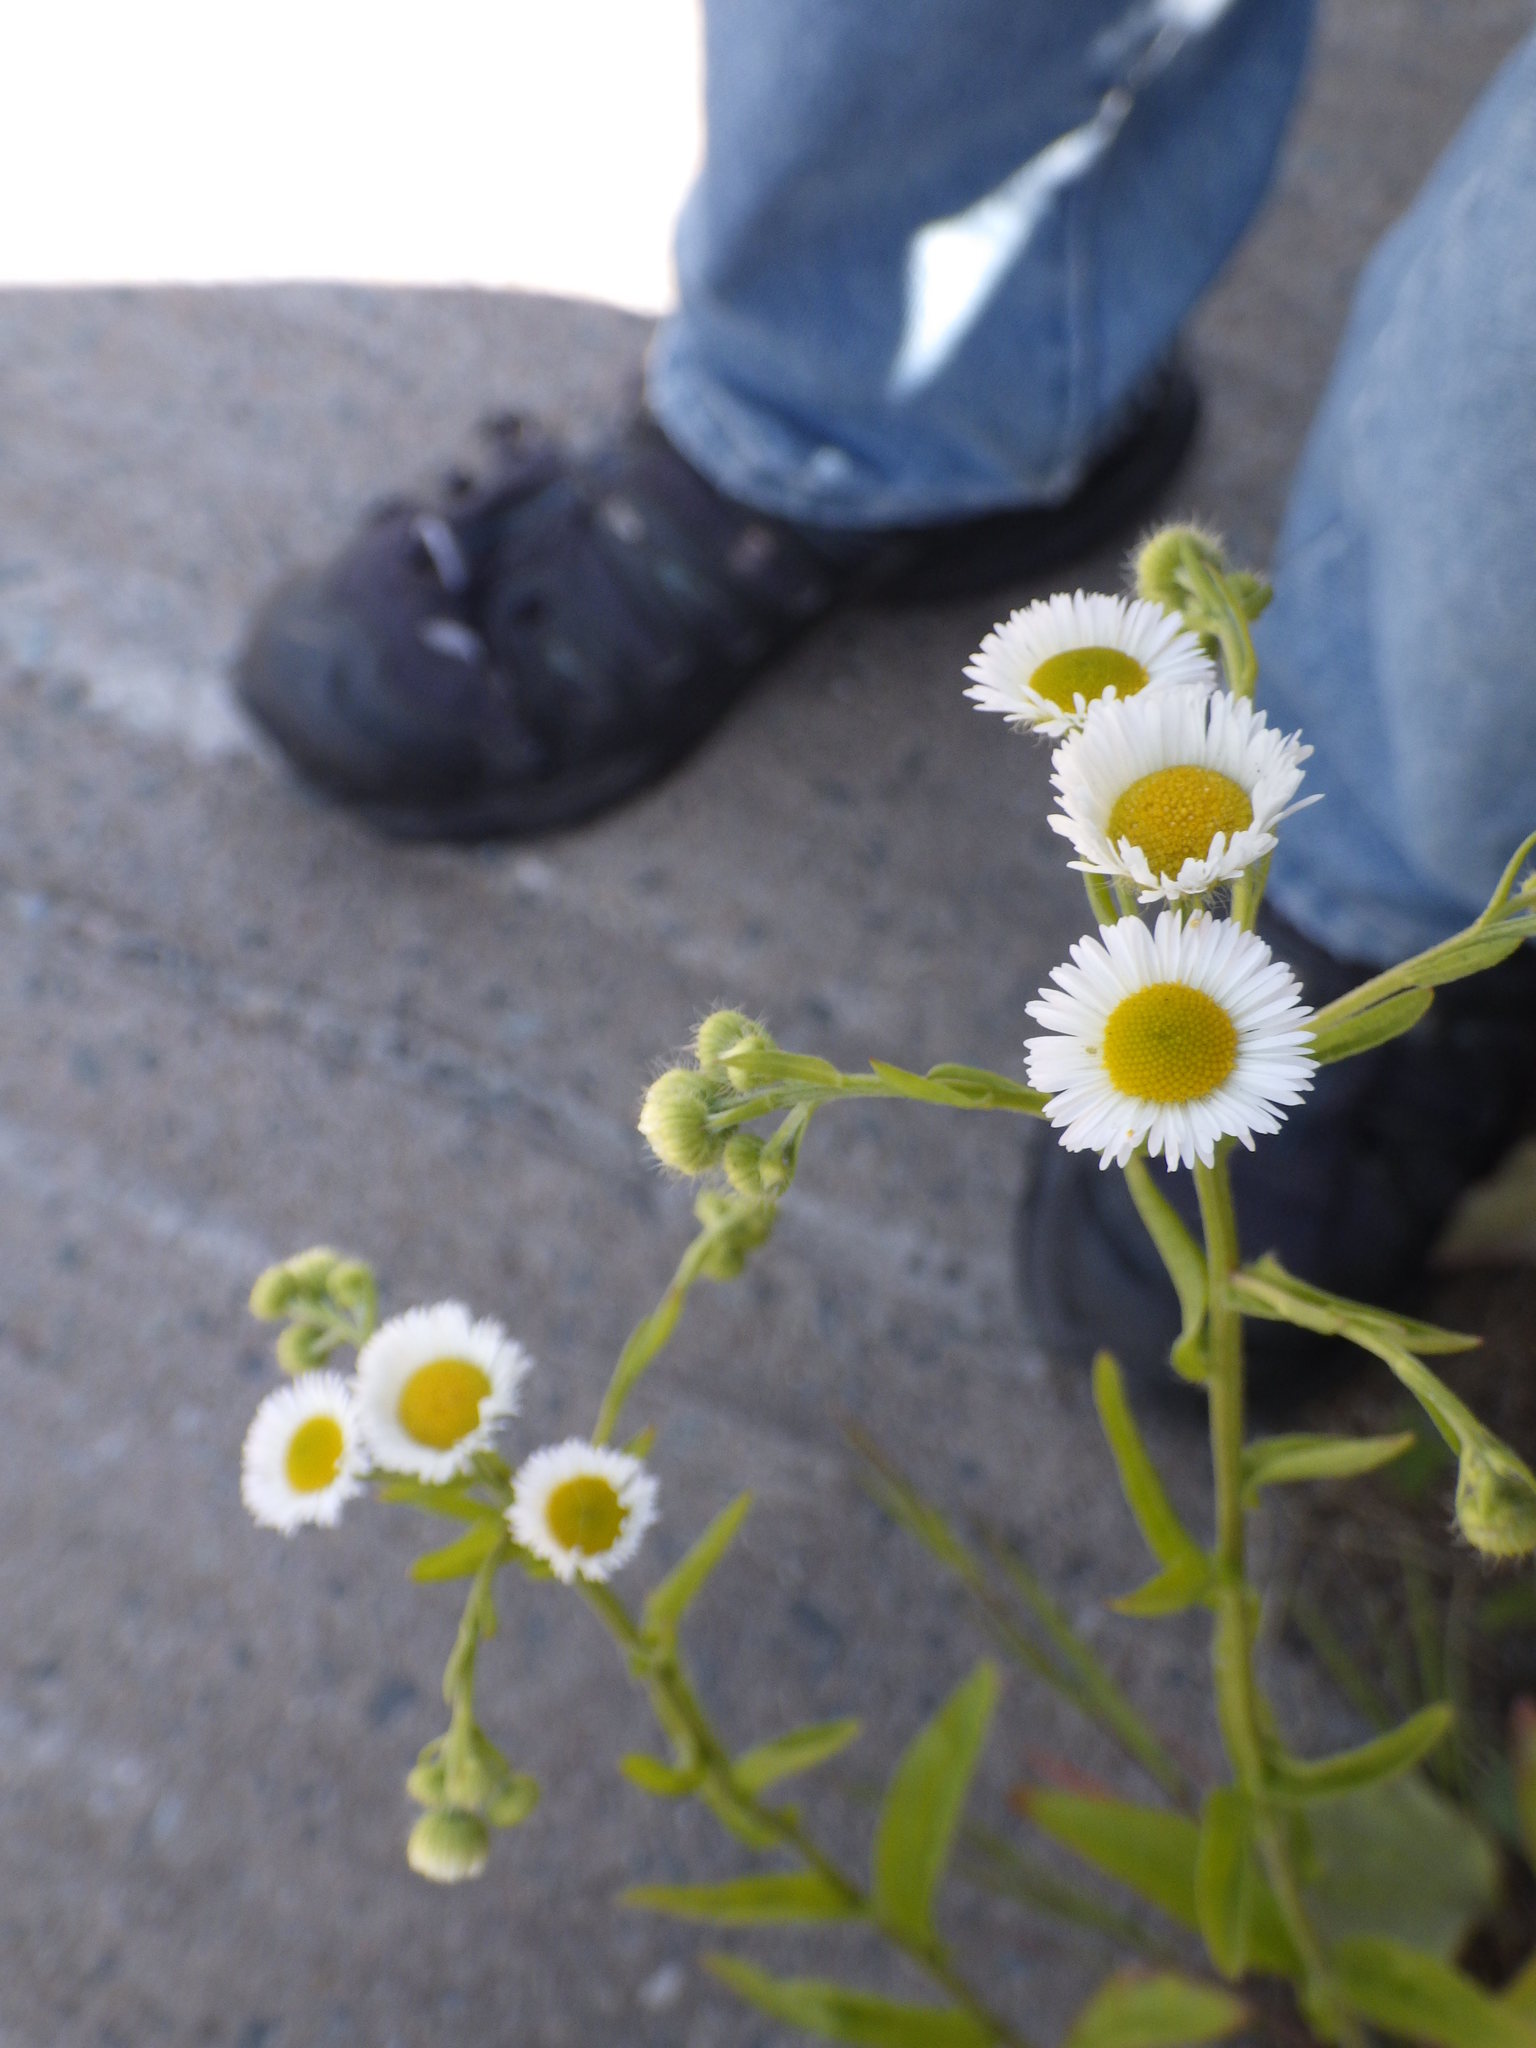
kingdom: Plantae
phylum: Tracheophyta
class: Magnoliopsida
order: Asterales
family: Asteraceae
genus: Erigeron
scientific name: Erigeron annuus
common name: Tall fleabane
